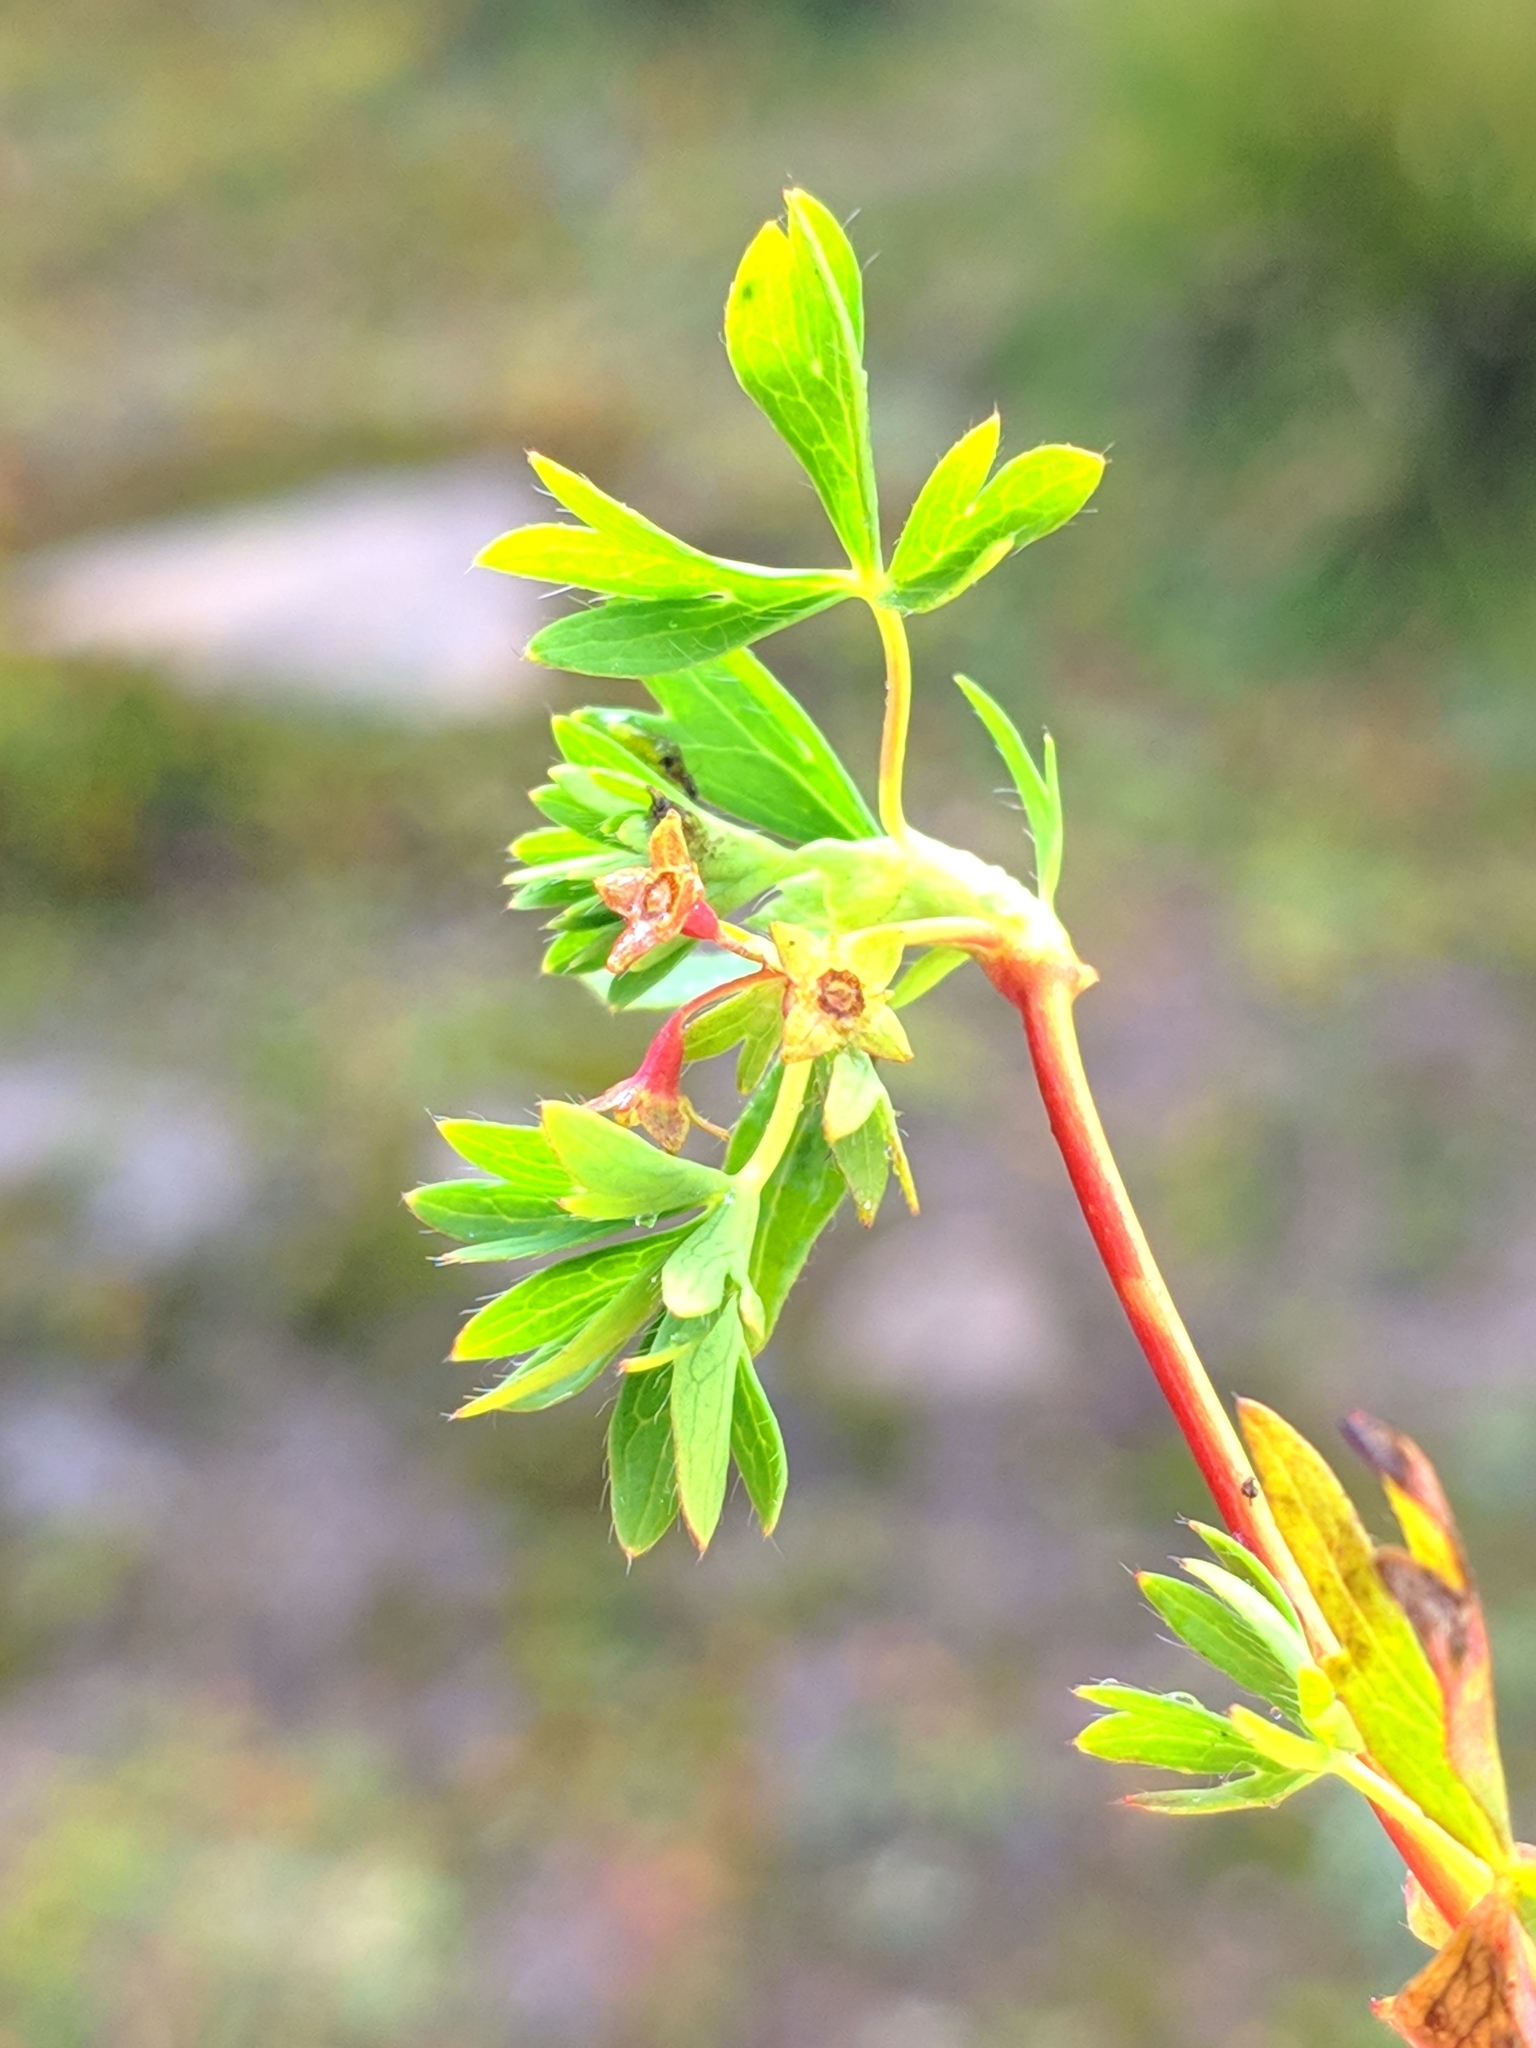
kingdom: Plantae
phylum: Tracheophyta
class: Magnoliopsida
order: Rosales
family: Rosaceae
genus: Alchemilla
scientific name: Alchemilla pentaphyllea
